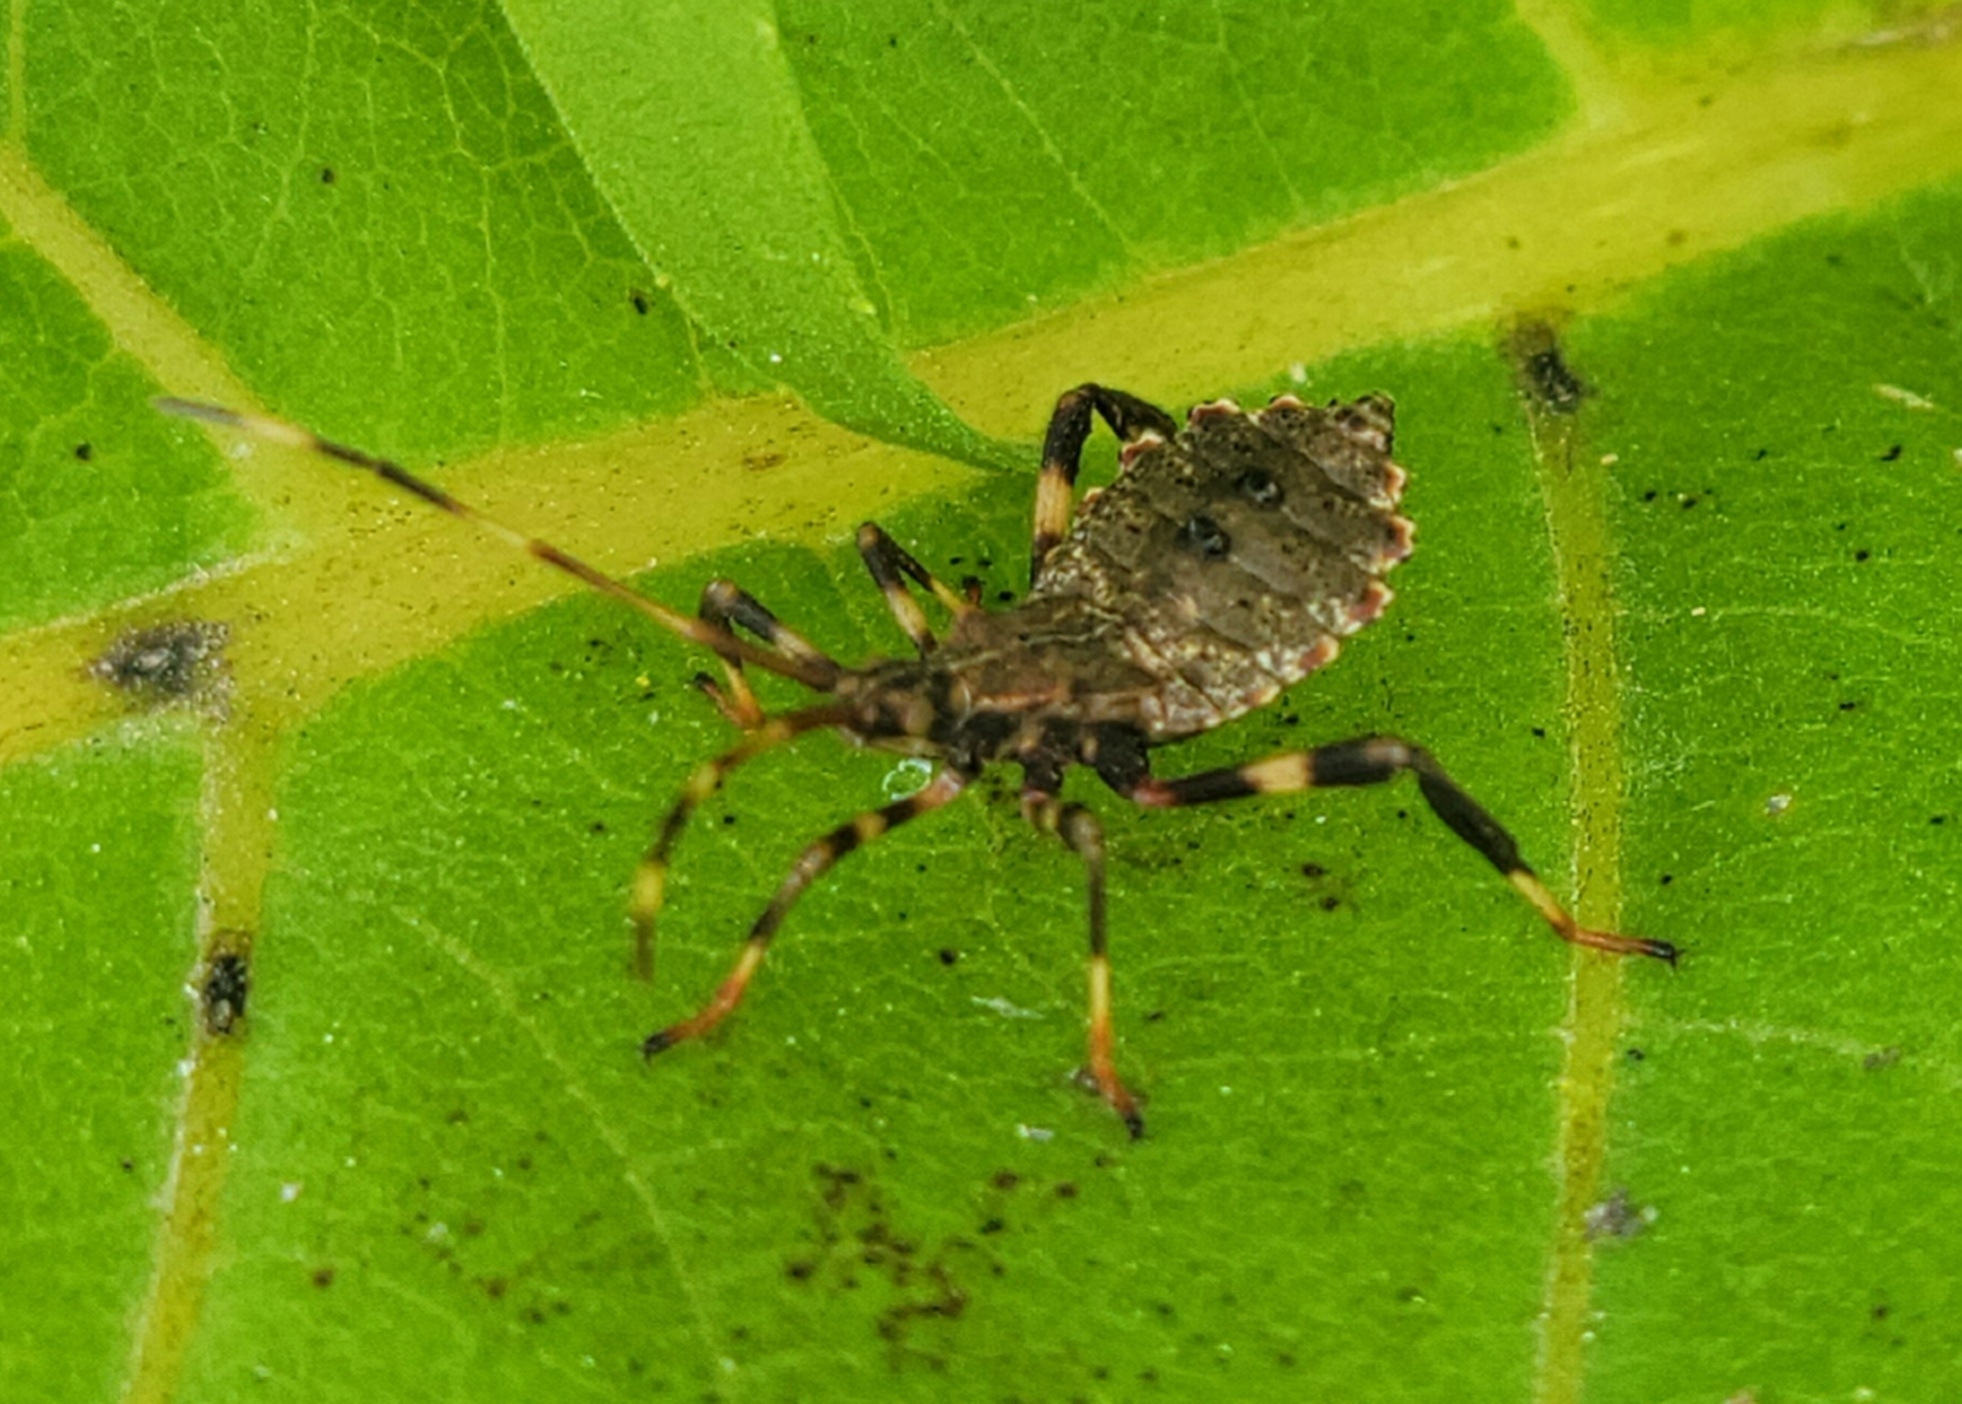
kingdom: Animalia
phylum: Arthropoda
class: Insecta
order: Hemiptera
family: Coreidae
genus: Acanthocephala
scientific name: Acanthocephala terminalis
